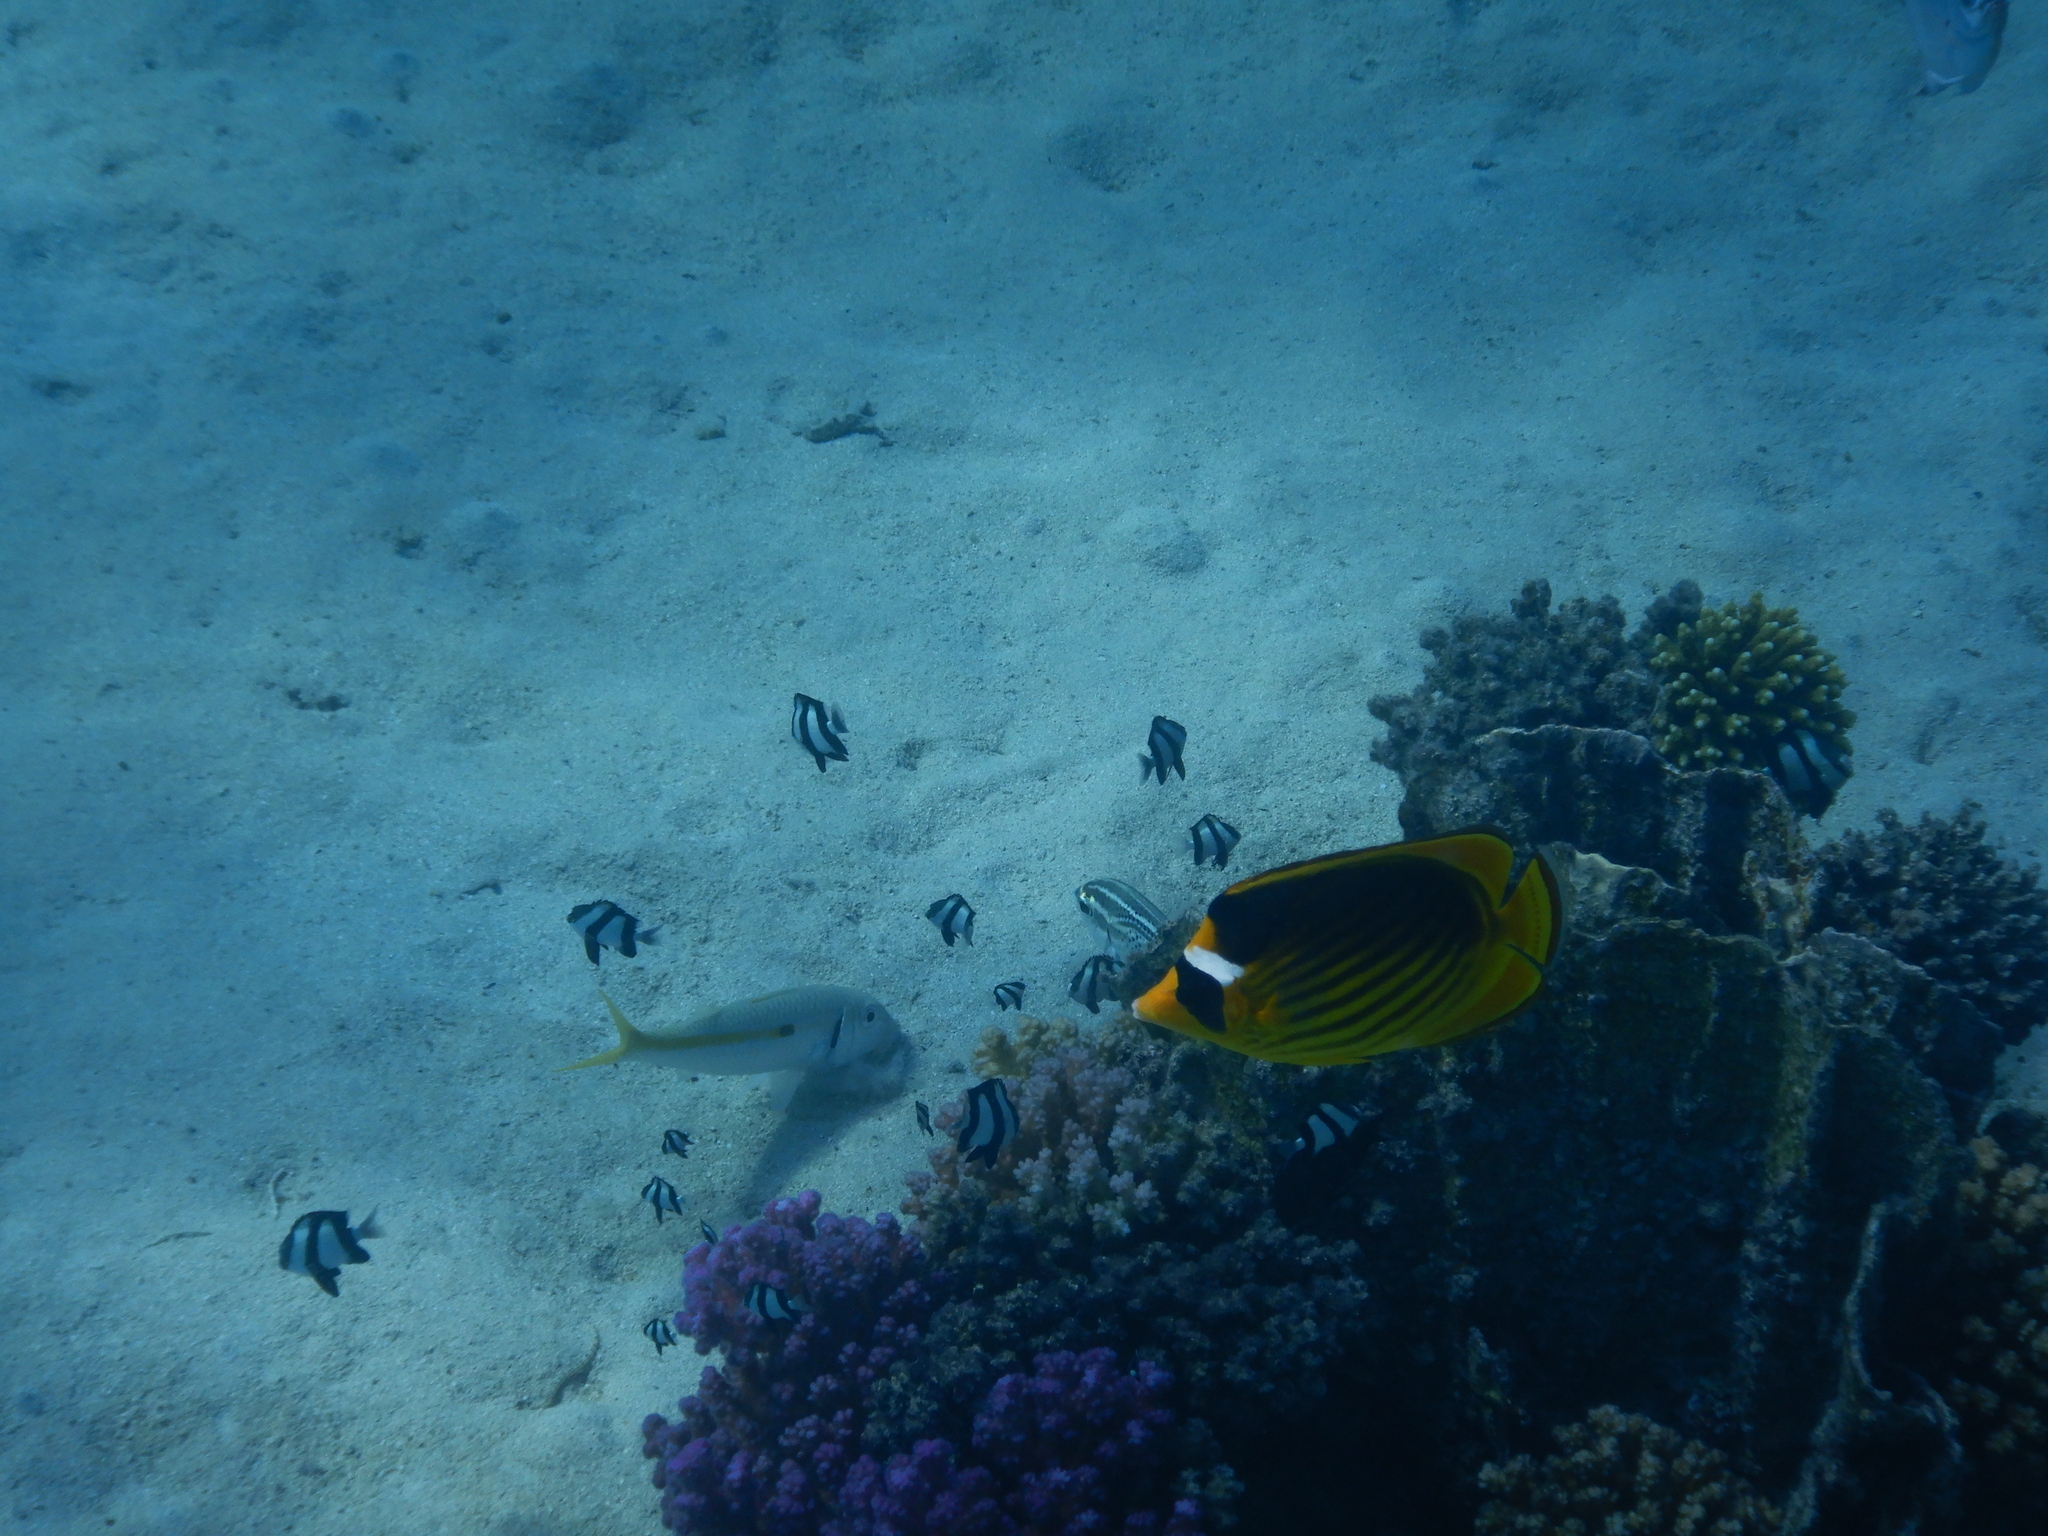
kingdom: Animalia
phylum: Chordata
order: Perciformes
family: Chaetodontidae
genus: Chaetodon
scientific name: Chaetodon fasciatus
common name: Diagonal butterflyfish
